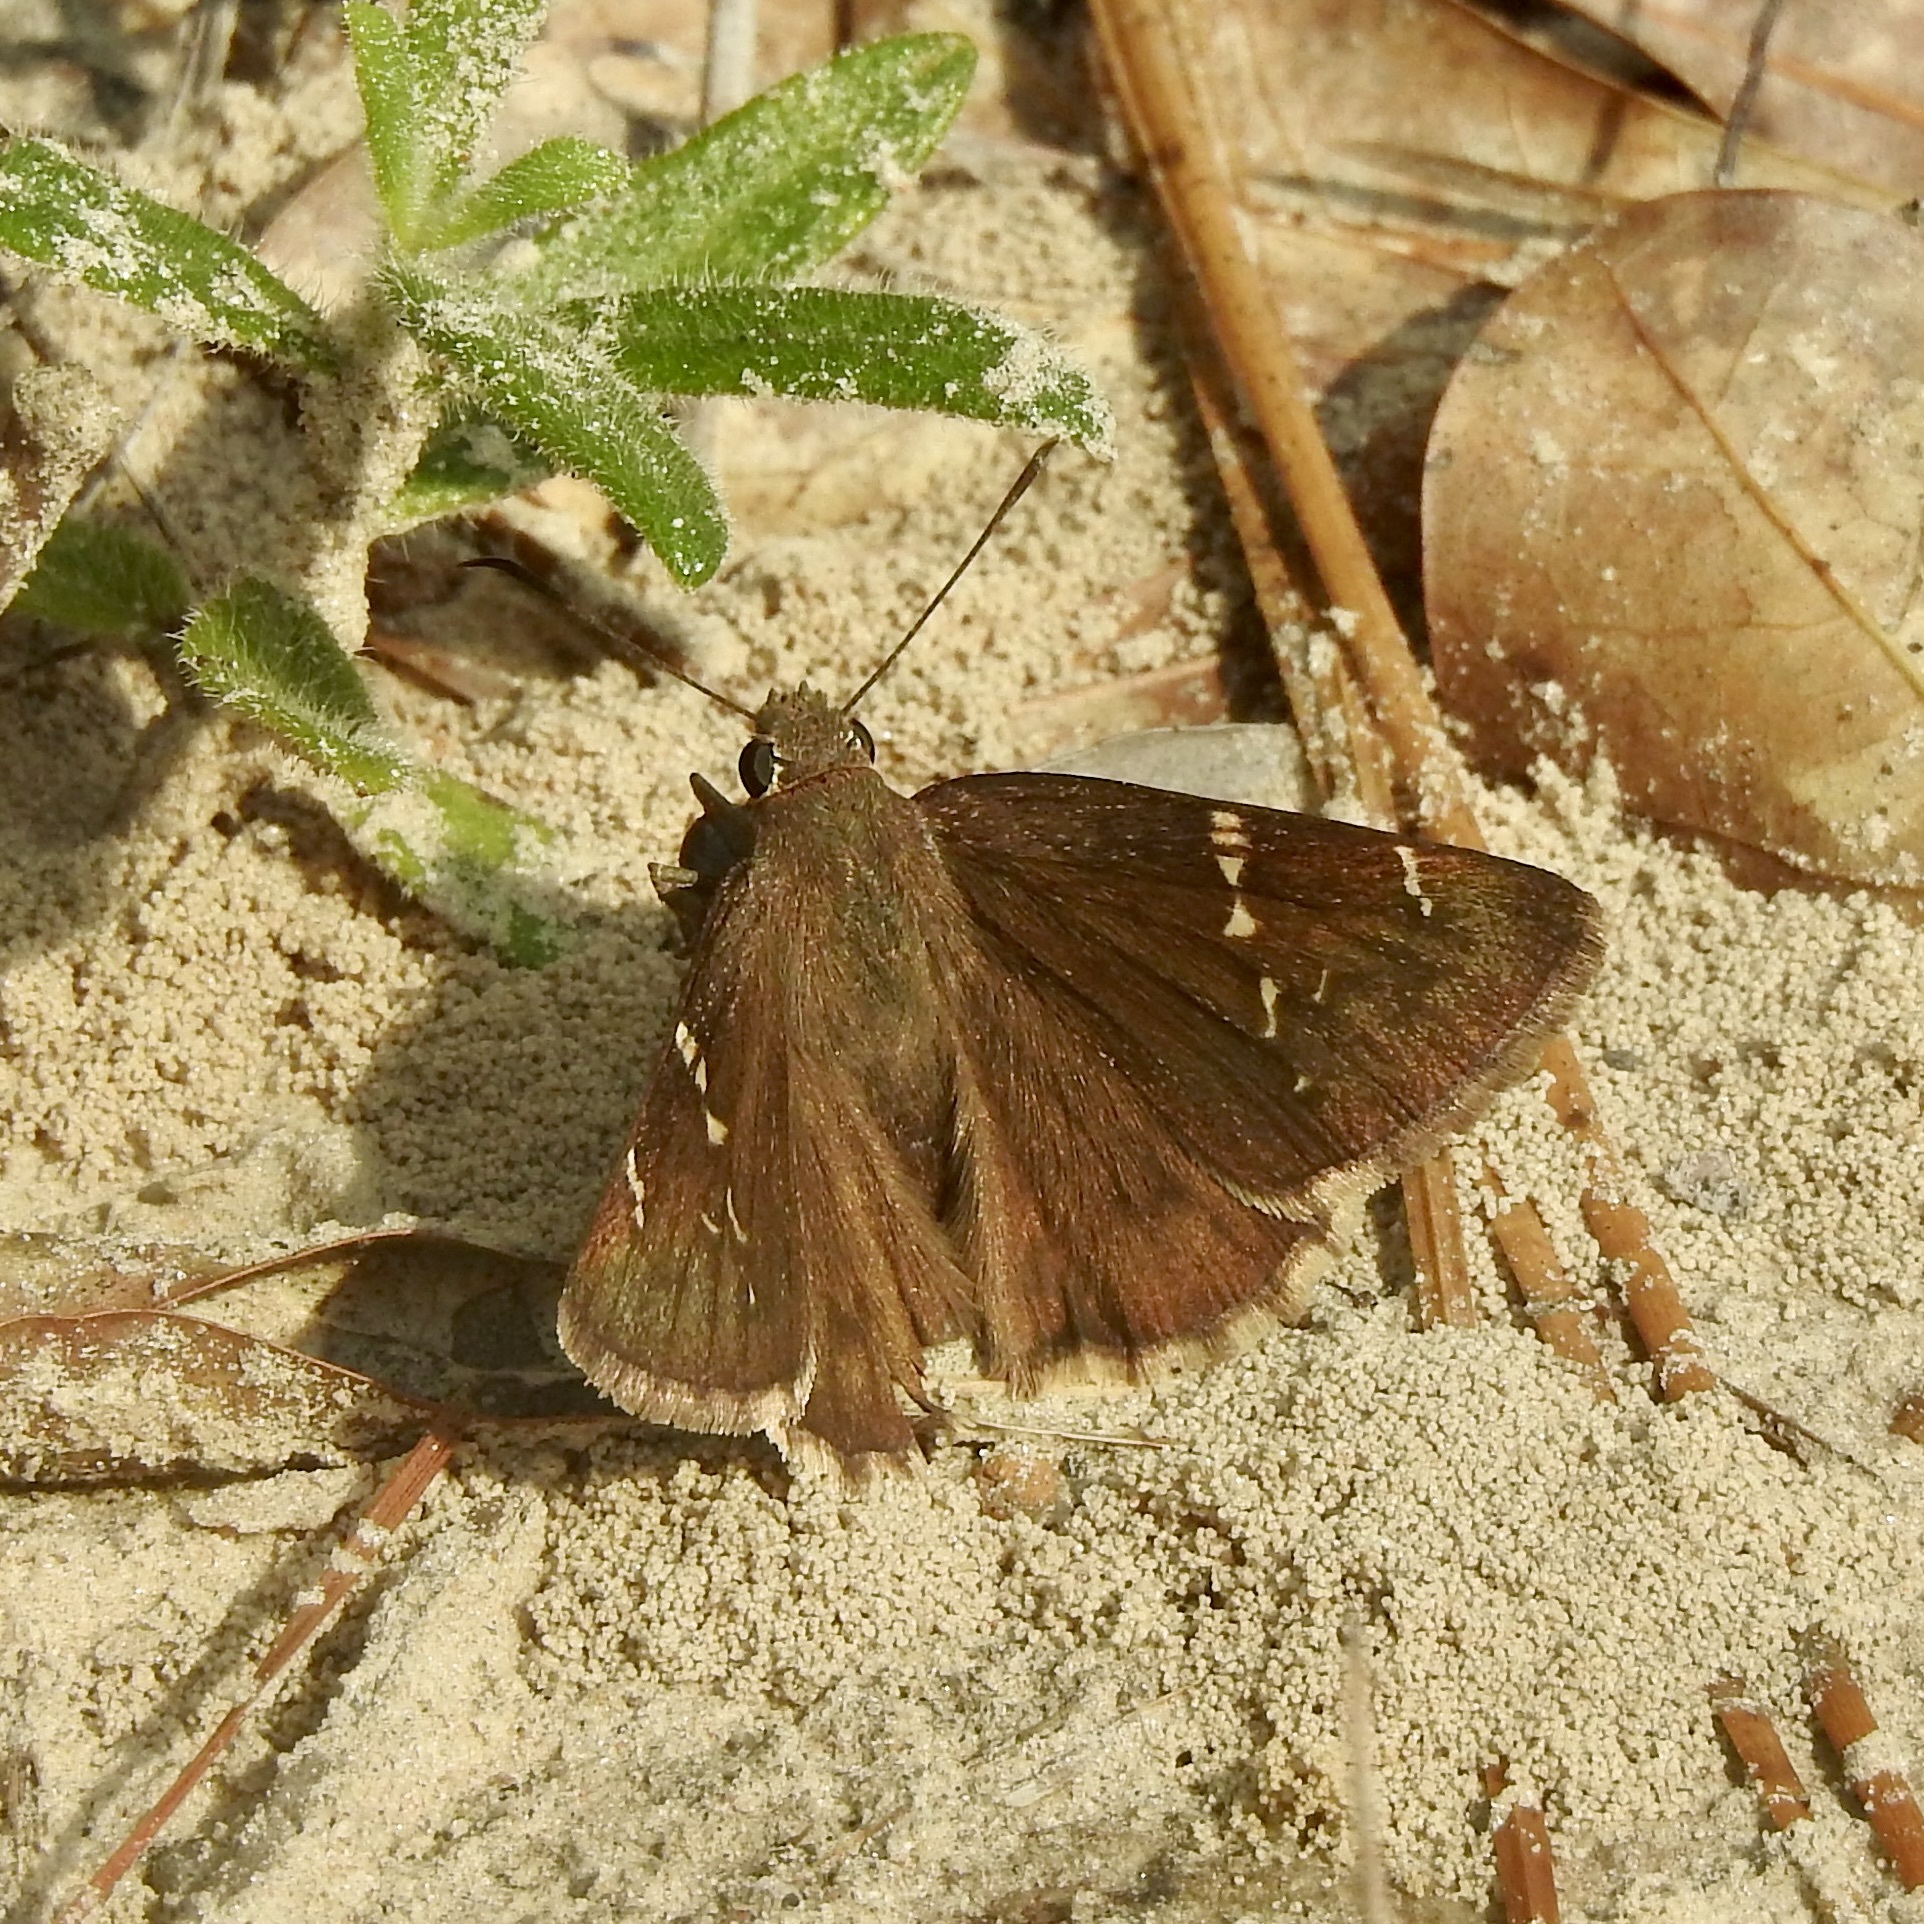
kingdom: Animalia
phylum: Arthropoda
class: Insecta
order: Lepidoptera
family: Hesperiidae
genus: Thorybes
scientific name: Thorybes mexicana
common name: Mexican cloudywing
